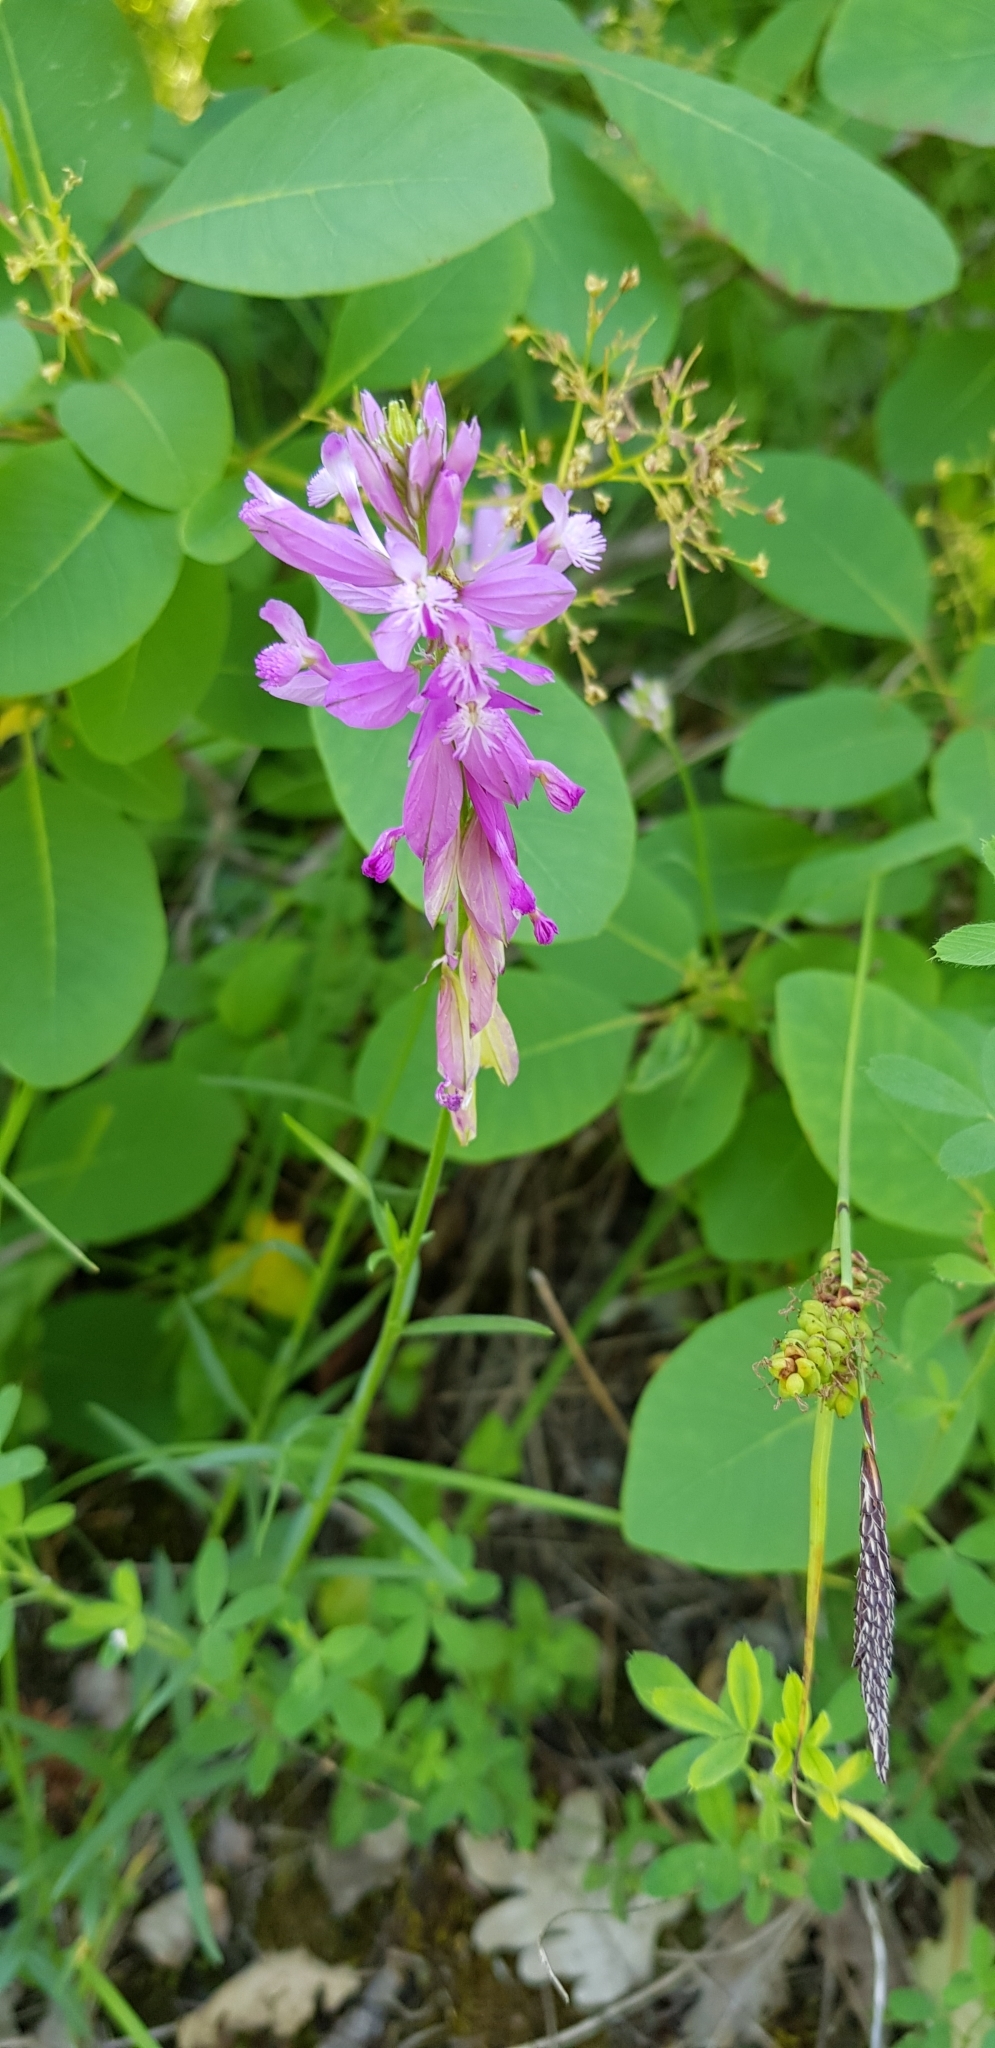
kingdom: Plantae
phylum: Tracheophyta
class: Magnoliopsida
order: Fabales
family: Polygalaceae
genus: Polygala
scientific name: Polygala major
